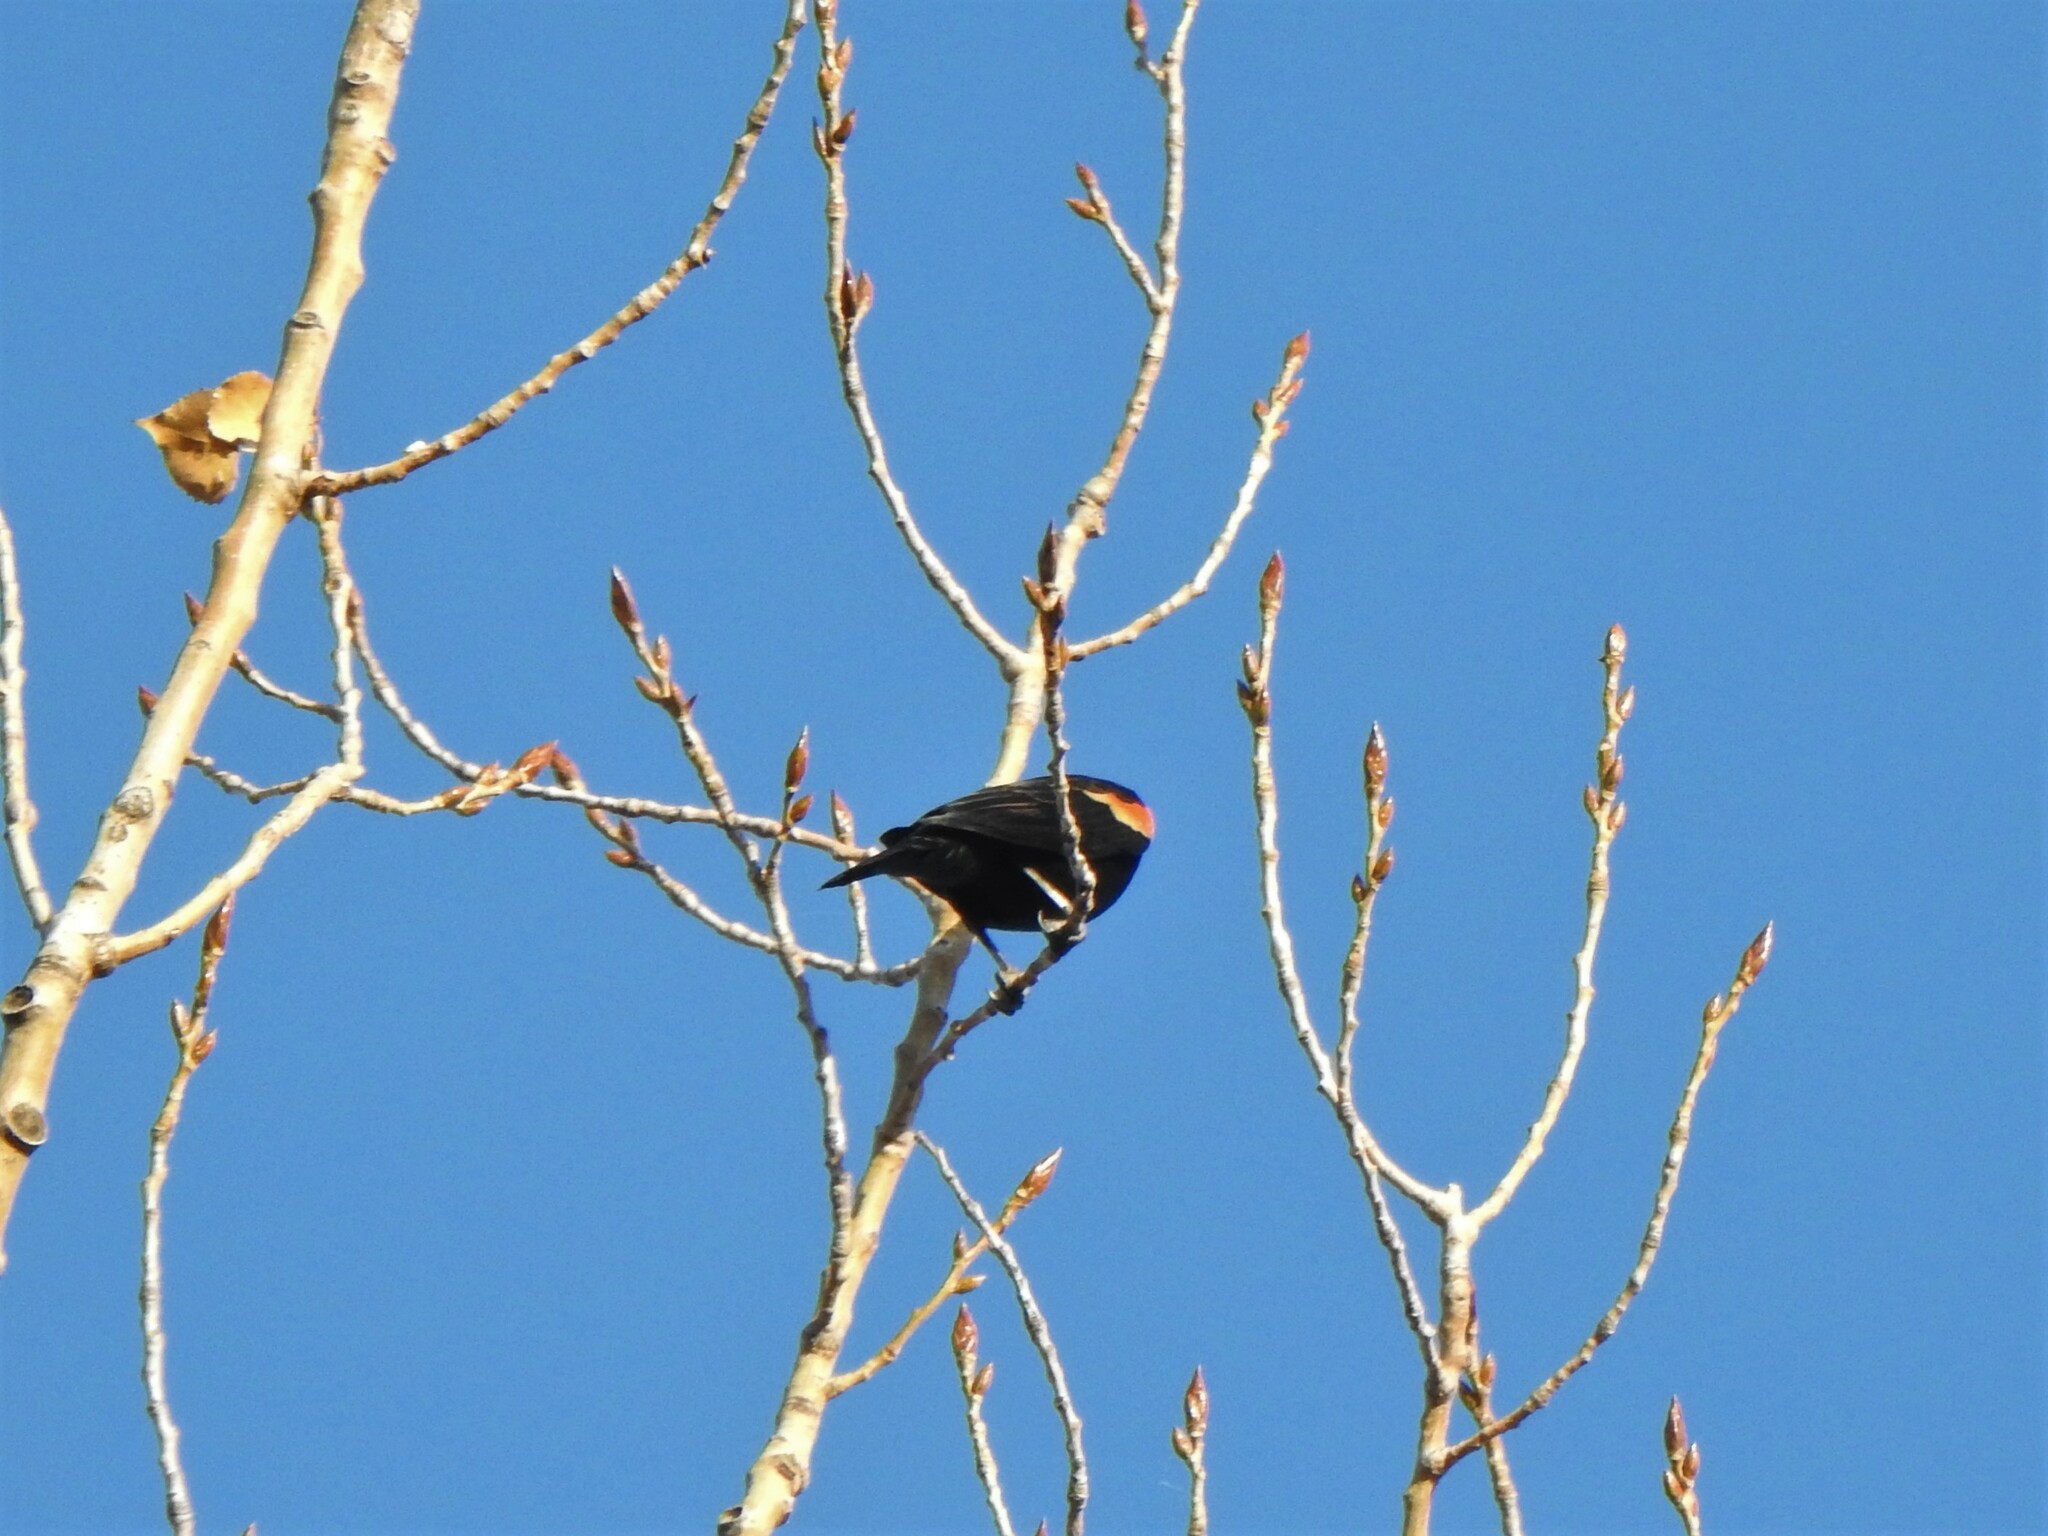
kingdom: Animalia
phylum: Chordata
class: Aves
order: Passeriformes
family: Icteridae
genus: Agelaius
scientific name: Agelaius phoeniceus
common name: Red-winged blackbird
